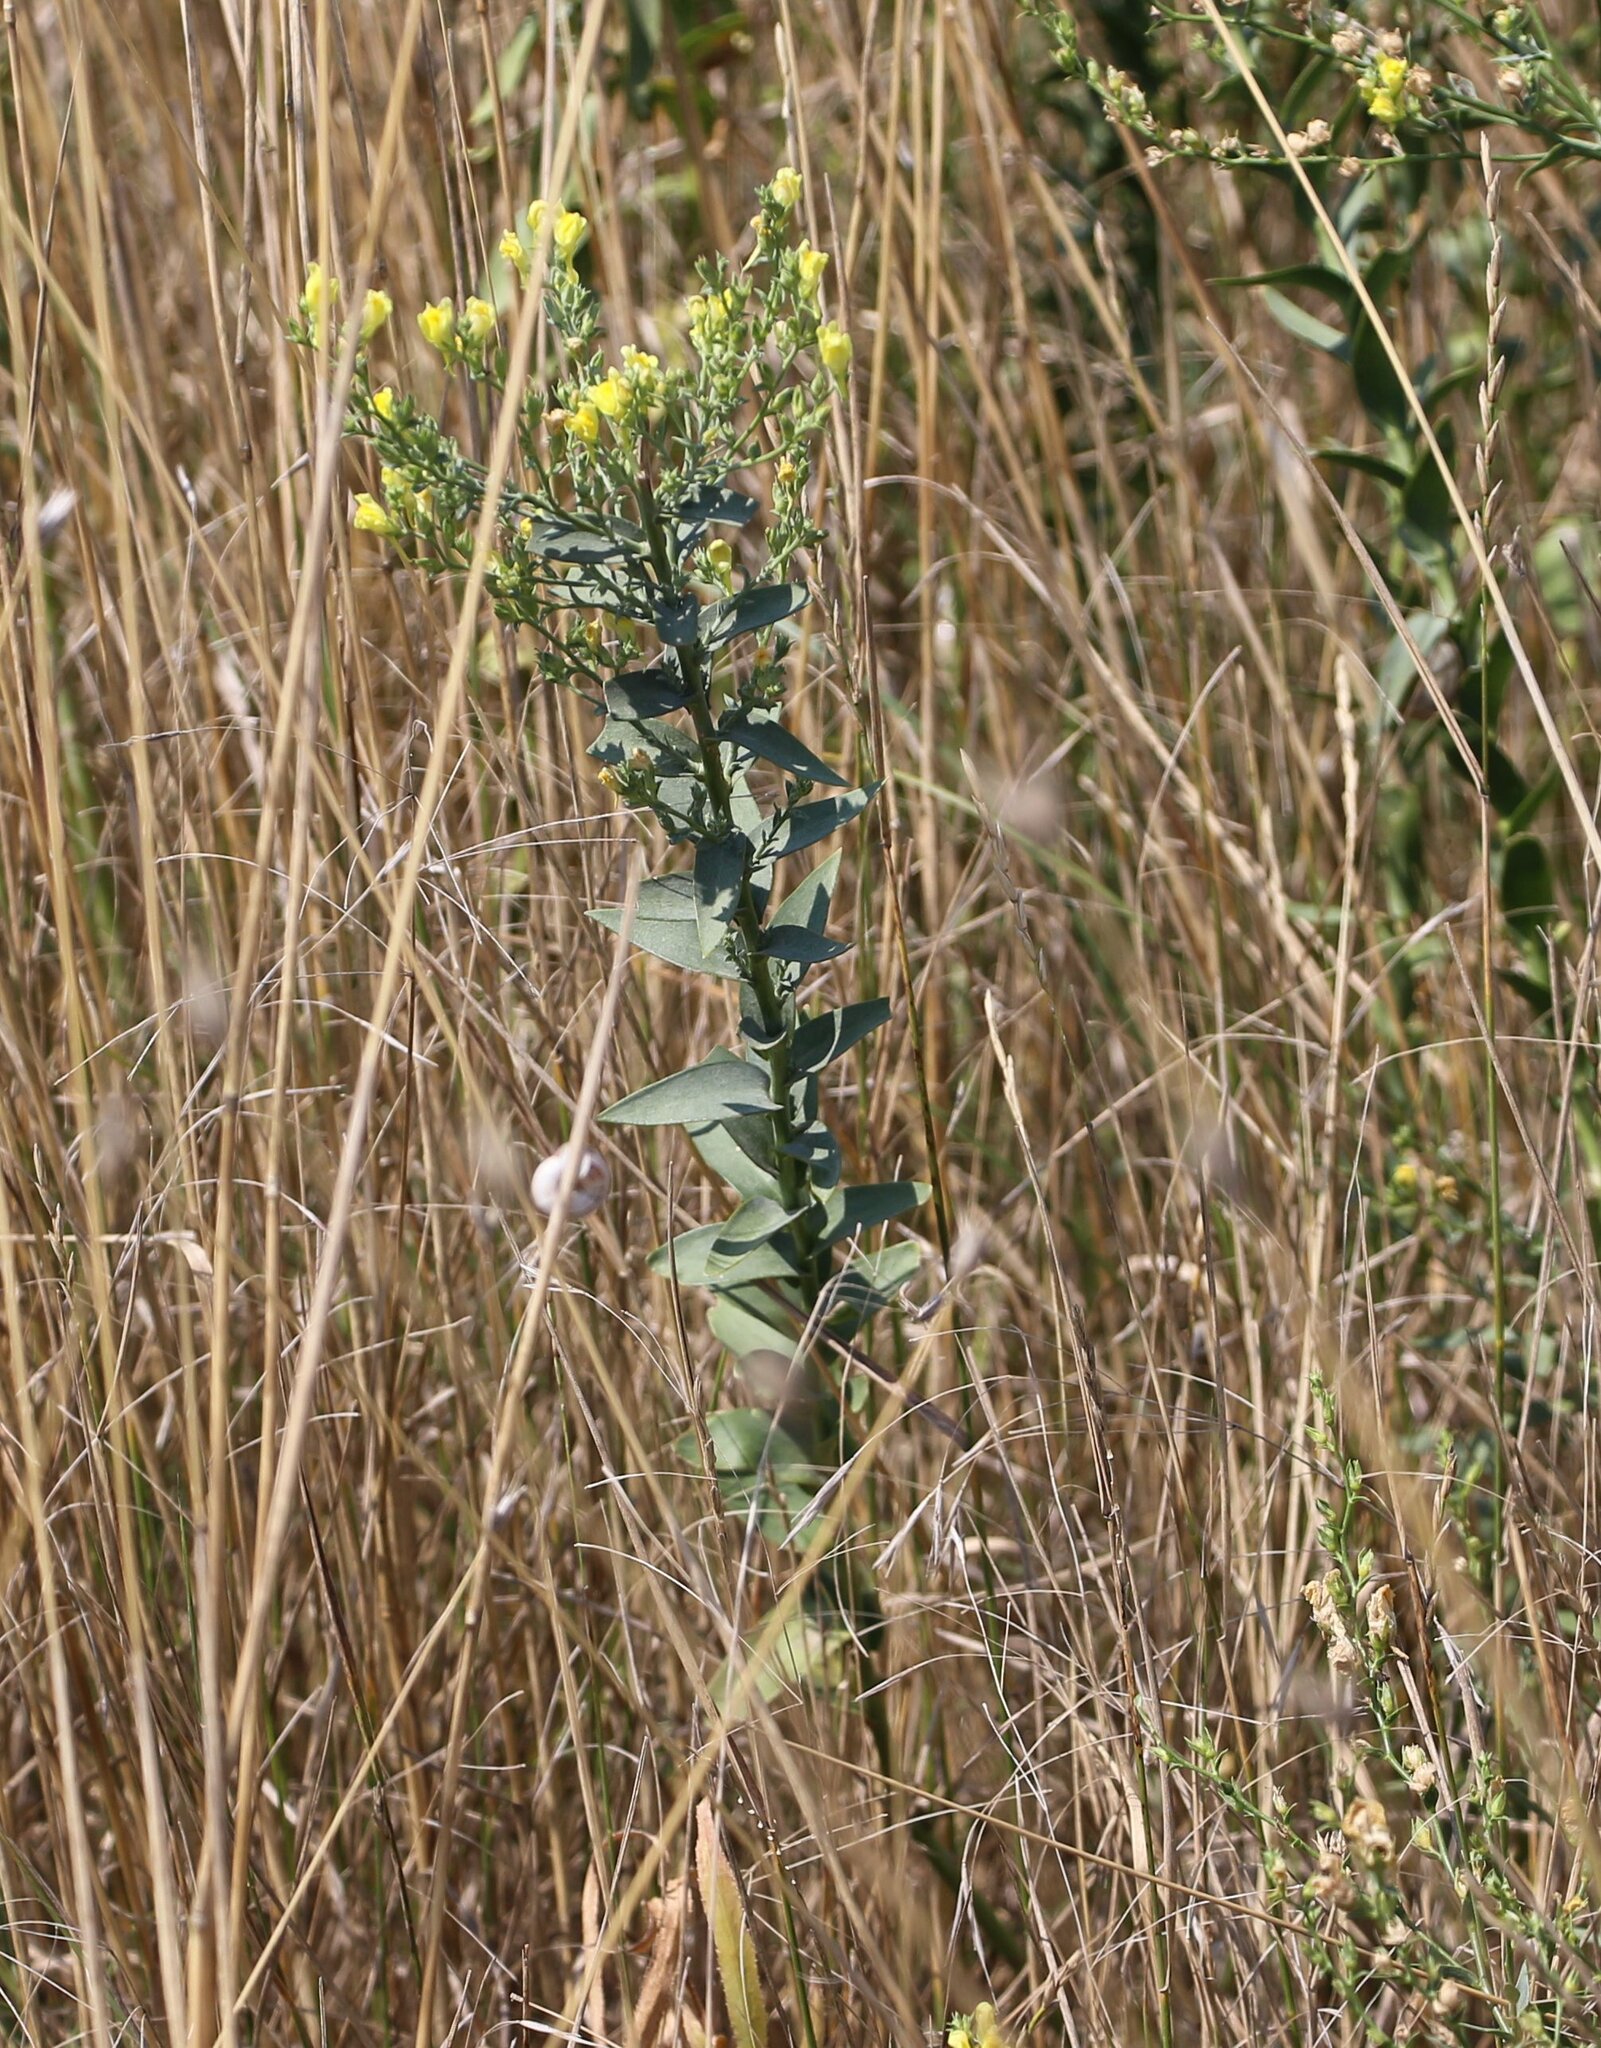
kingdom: Plantae
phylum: Tracheophyta
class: Magnoliopsida
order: Lamiales
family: Plantaginaceae
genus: Linaria
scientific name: Linaria genistifolia
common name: Broomleaf toadflax
